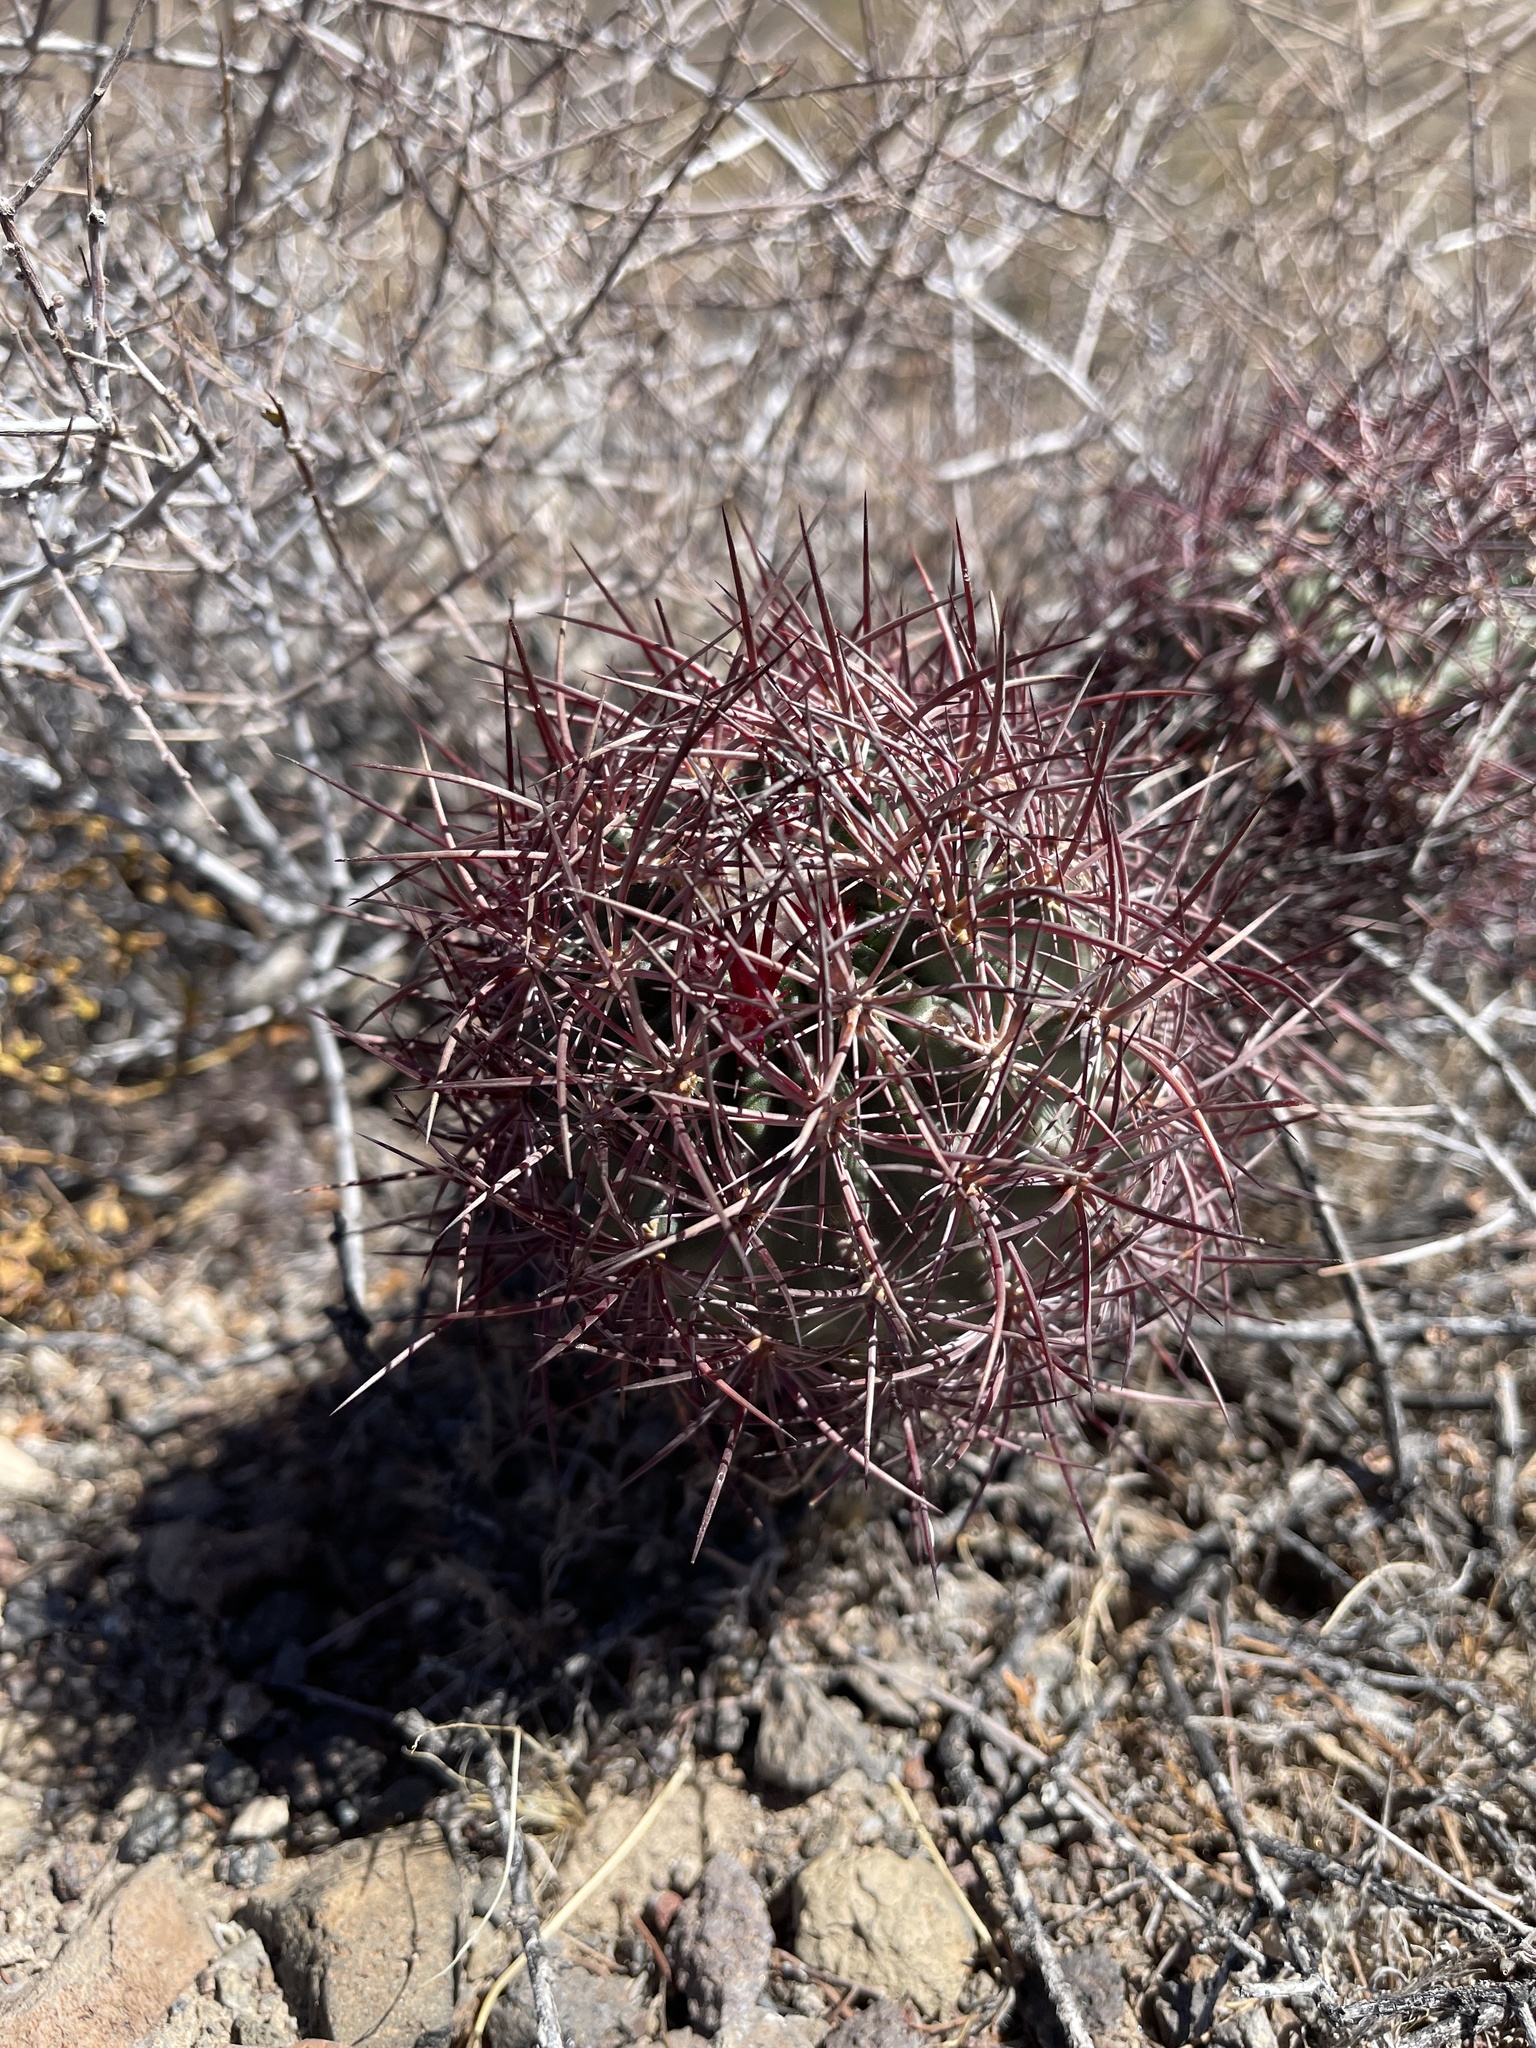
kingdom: Plantae
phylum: Tracheophyta
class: Magnoliopsida
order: Caryophyllales
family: Cactaceae
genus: Sclerocactus
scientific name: Sclerocactus johnsonii
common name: Eight-spine fishhook cactus
